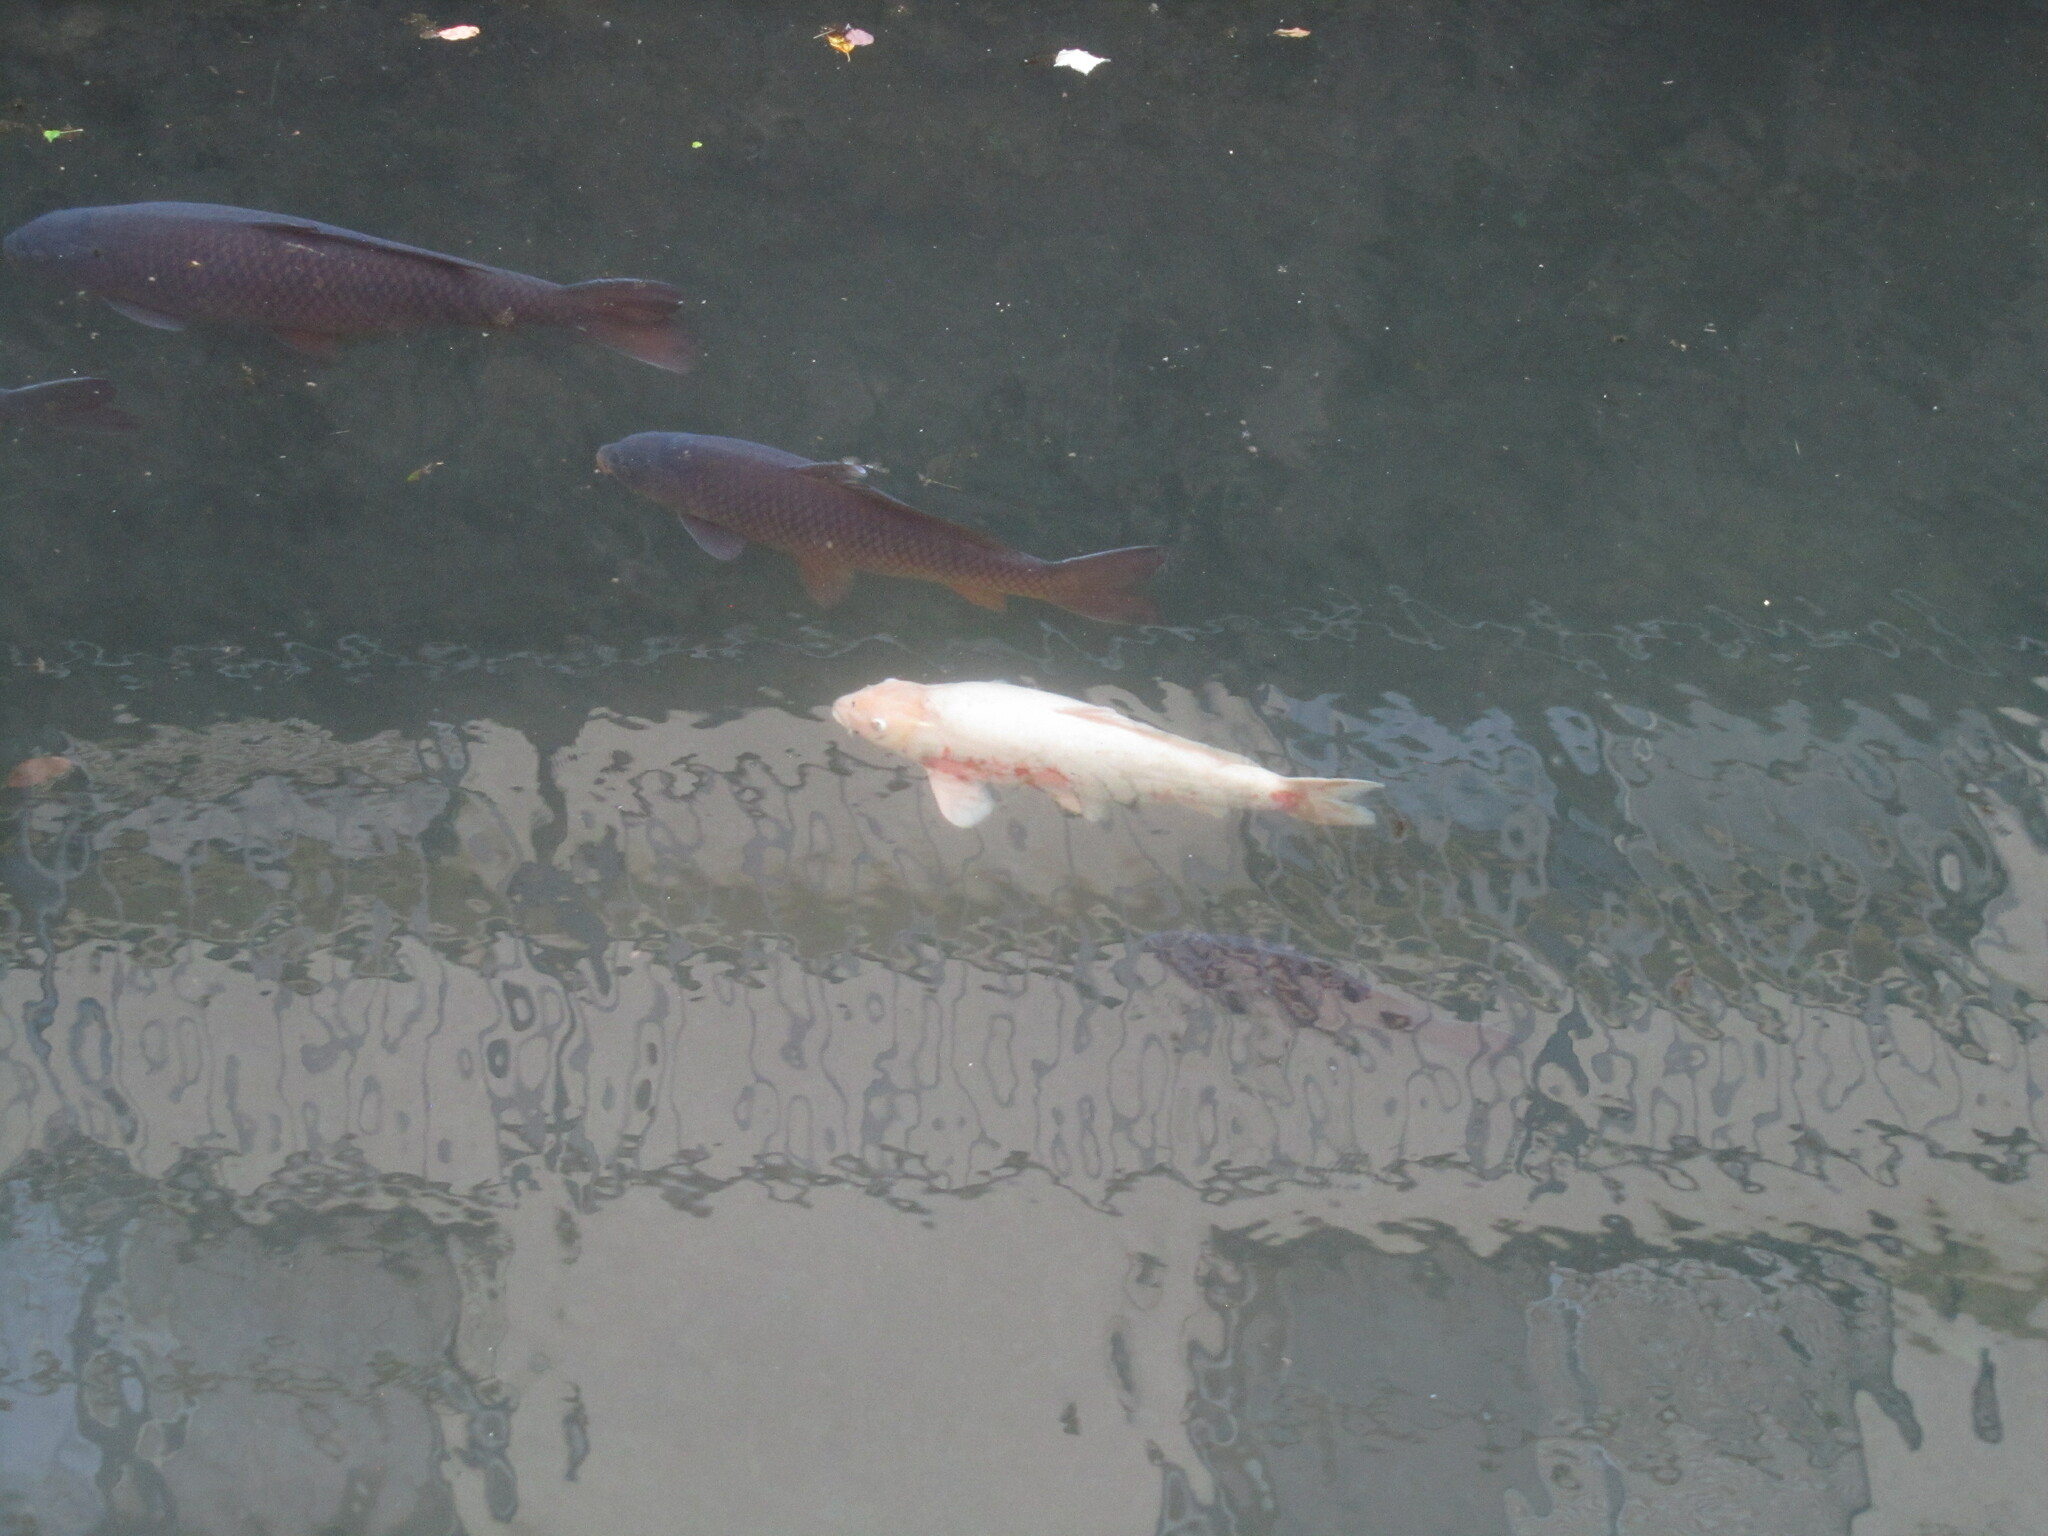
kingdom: Animalia
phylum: Chordata
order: Cypriniformes
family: Cyprinidae
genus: Cyprinus
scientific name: Cyprinus rubrofuscus
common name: Koi
